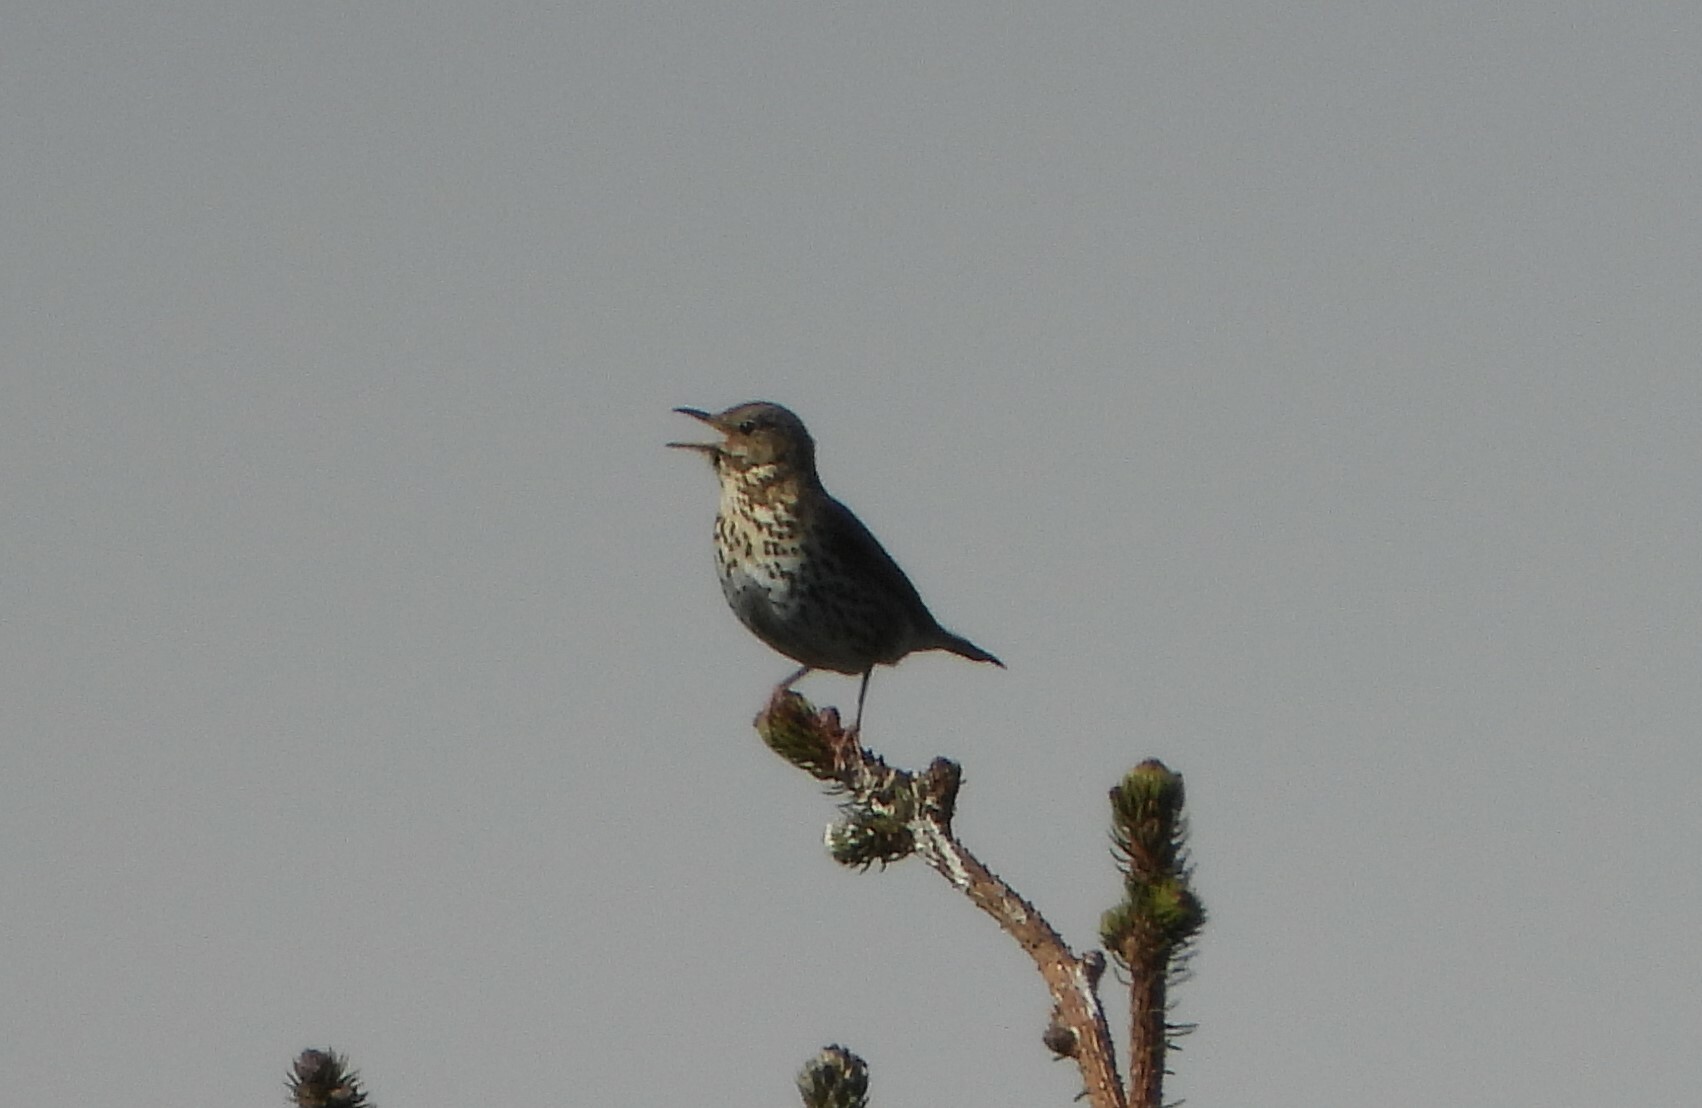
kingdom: Animalia
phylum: Chordata
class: Aves
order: Passeriformes
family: Turdidae
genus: Turdus
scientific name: Turdus philomelos
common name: Song thrush
